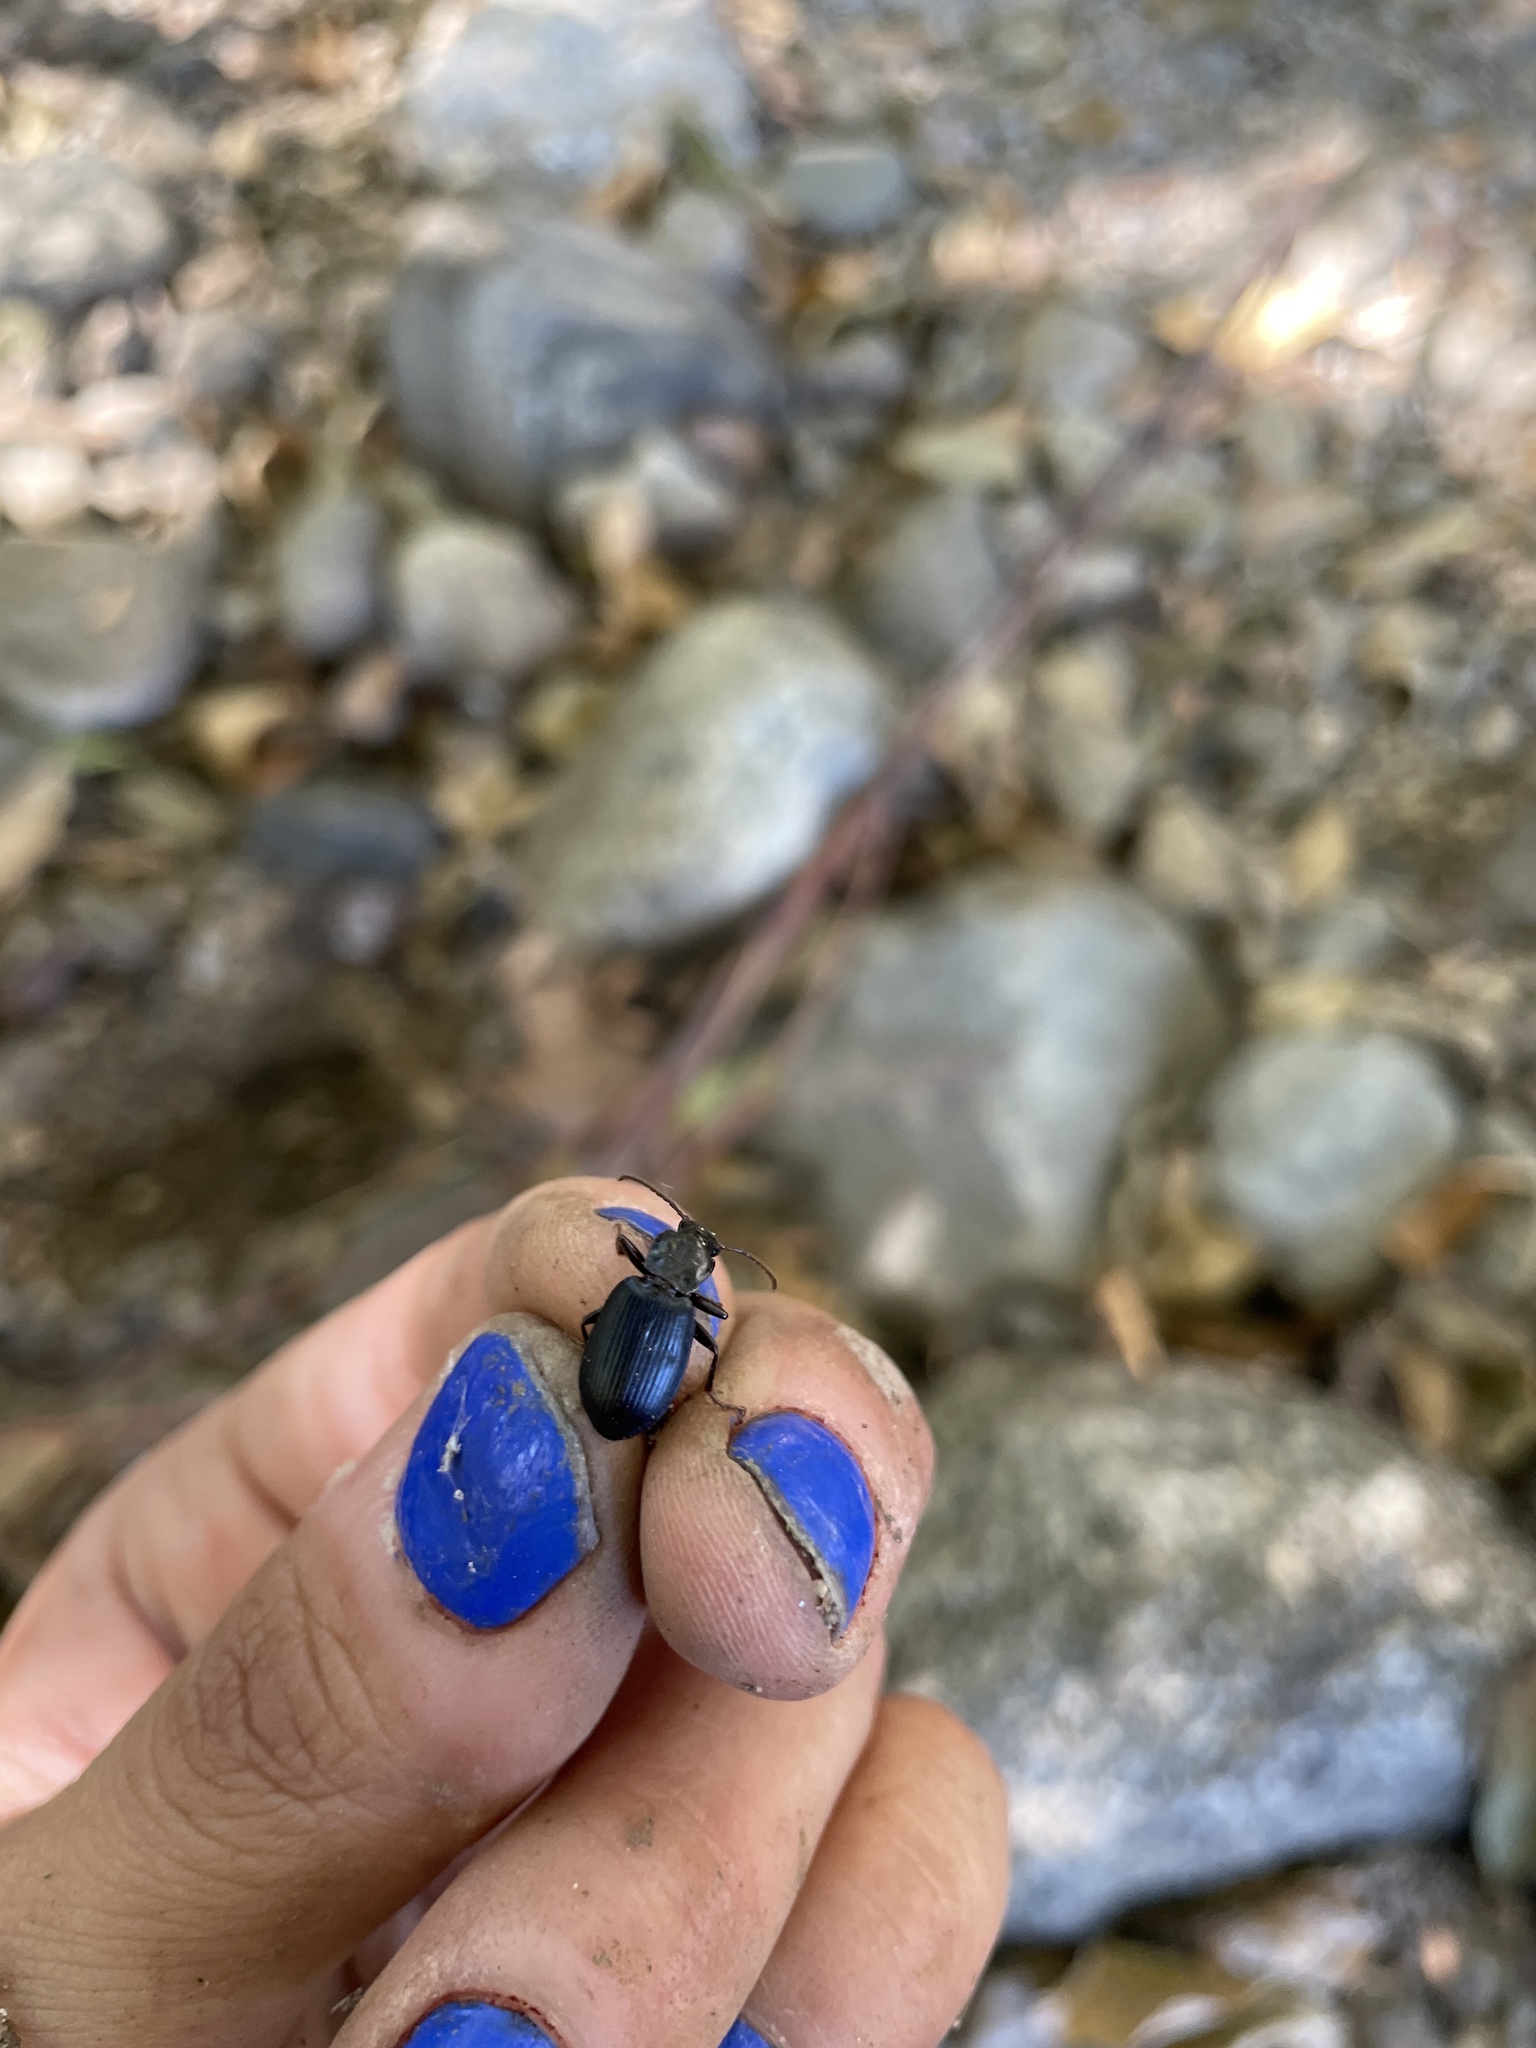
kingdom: Animalia
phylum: Arthropoda
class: Insecta
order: Coleoptera
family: Carabidae
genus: Laemostenus
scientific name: Laemostenus complanatus
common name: Cosmopolitan ground beetle
